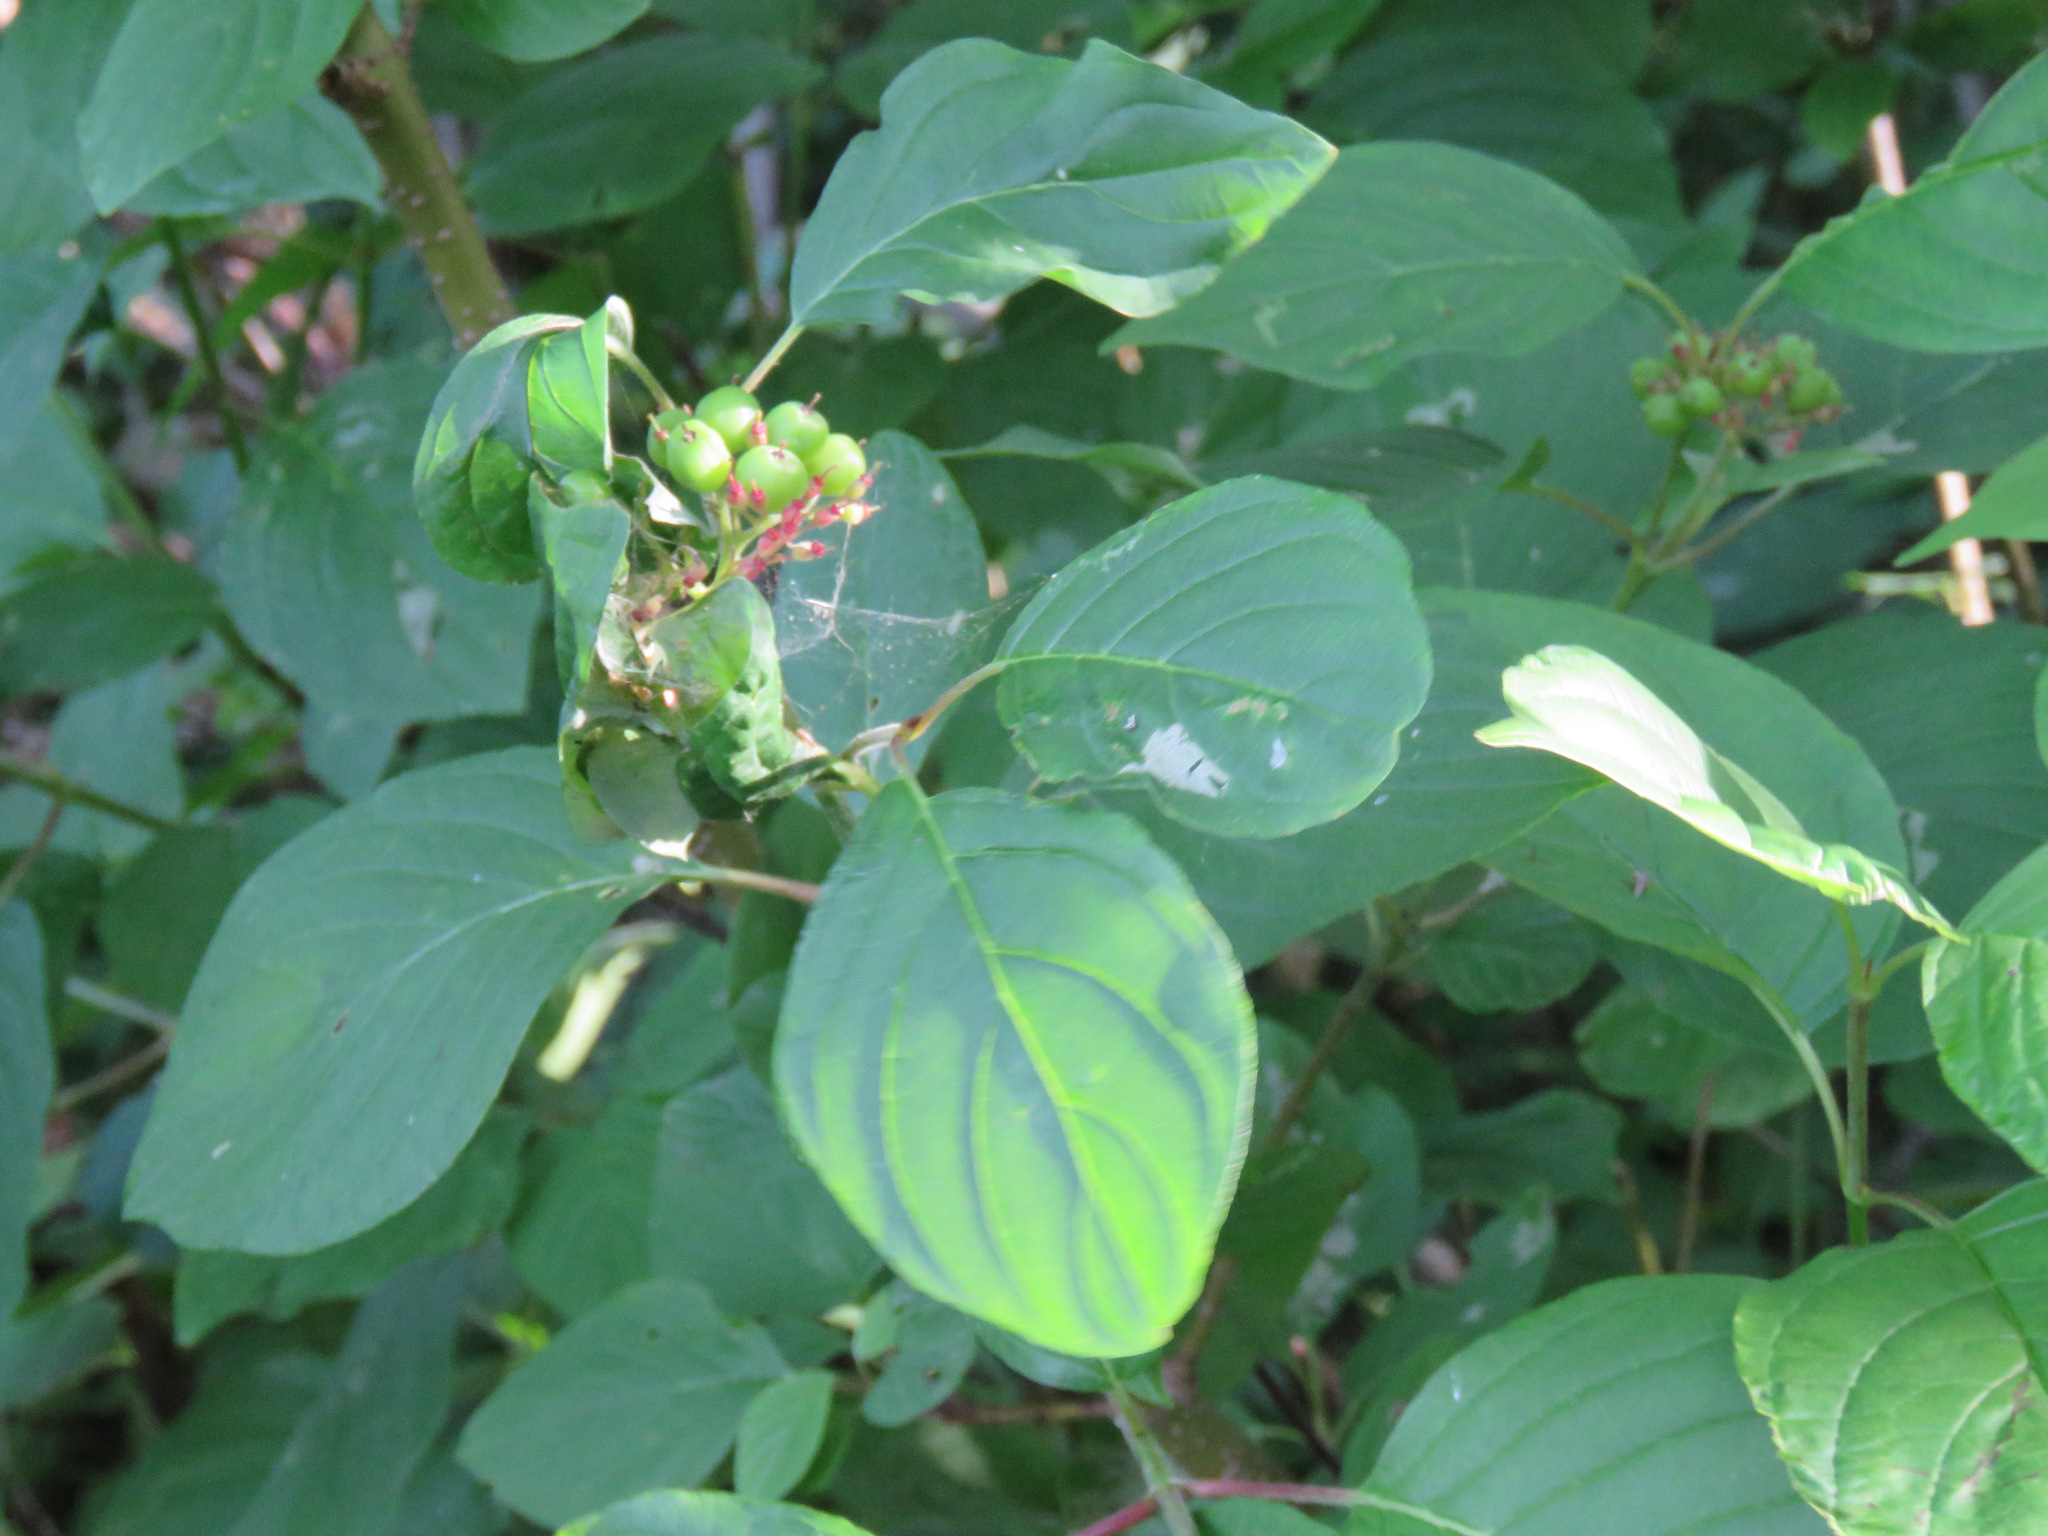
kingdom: Plantae
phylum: Tracheophyta
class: Magnoliopsida
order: Cornales
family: Cornaceae
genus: Cornus
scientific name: Cornus sericea
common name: Red-osier dogwood
